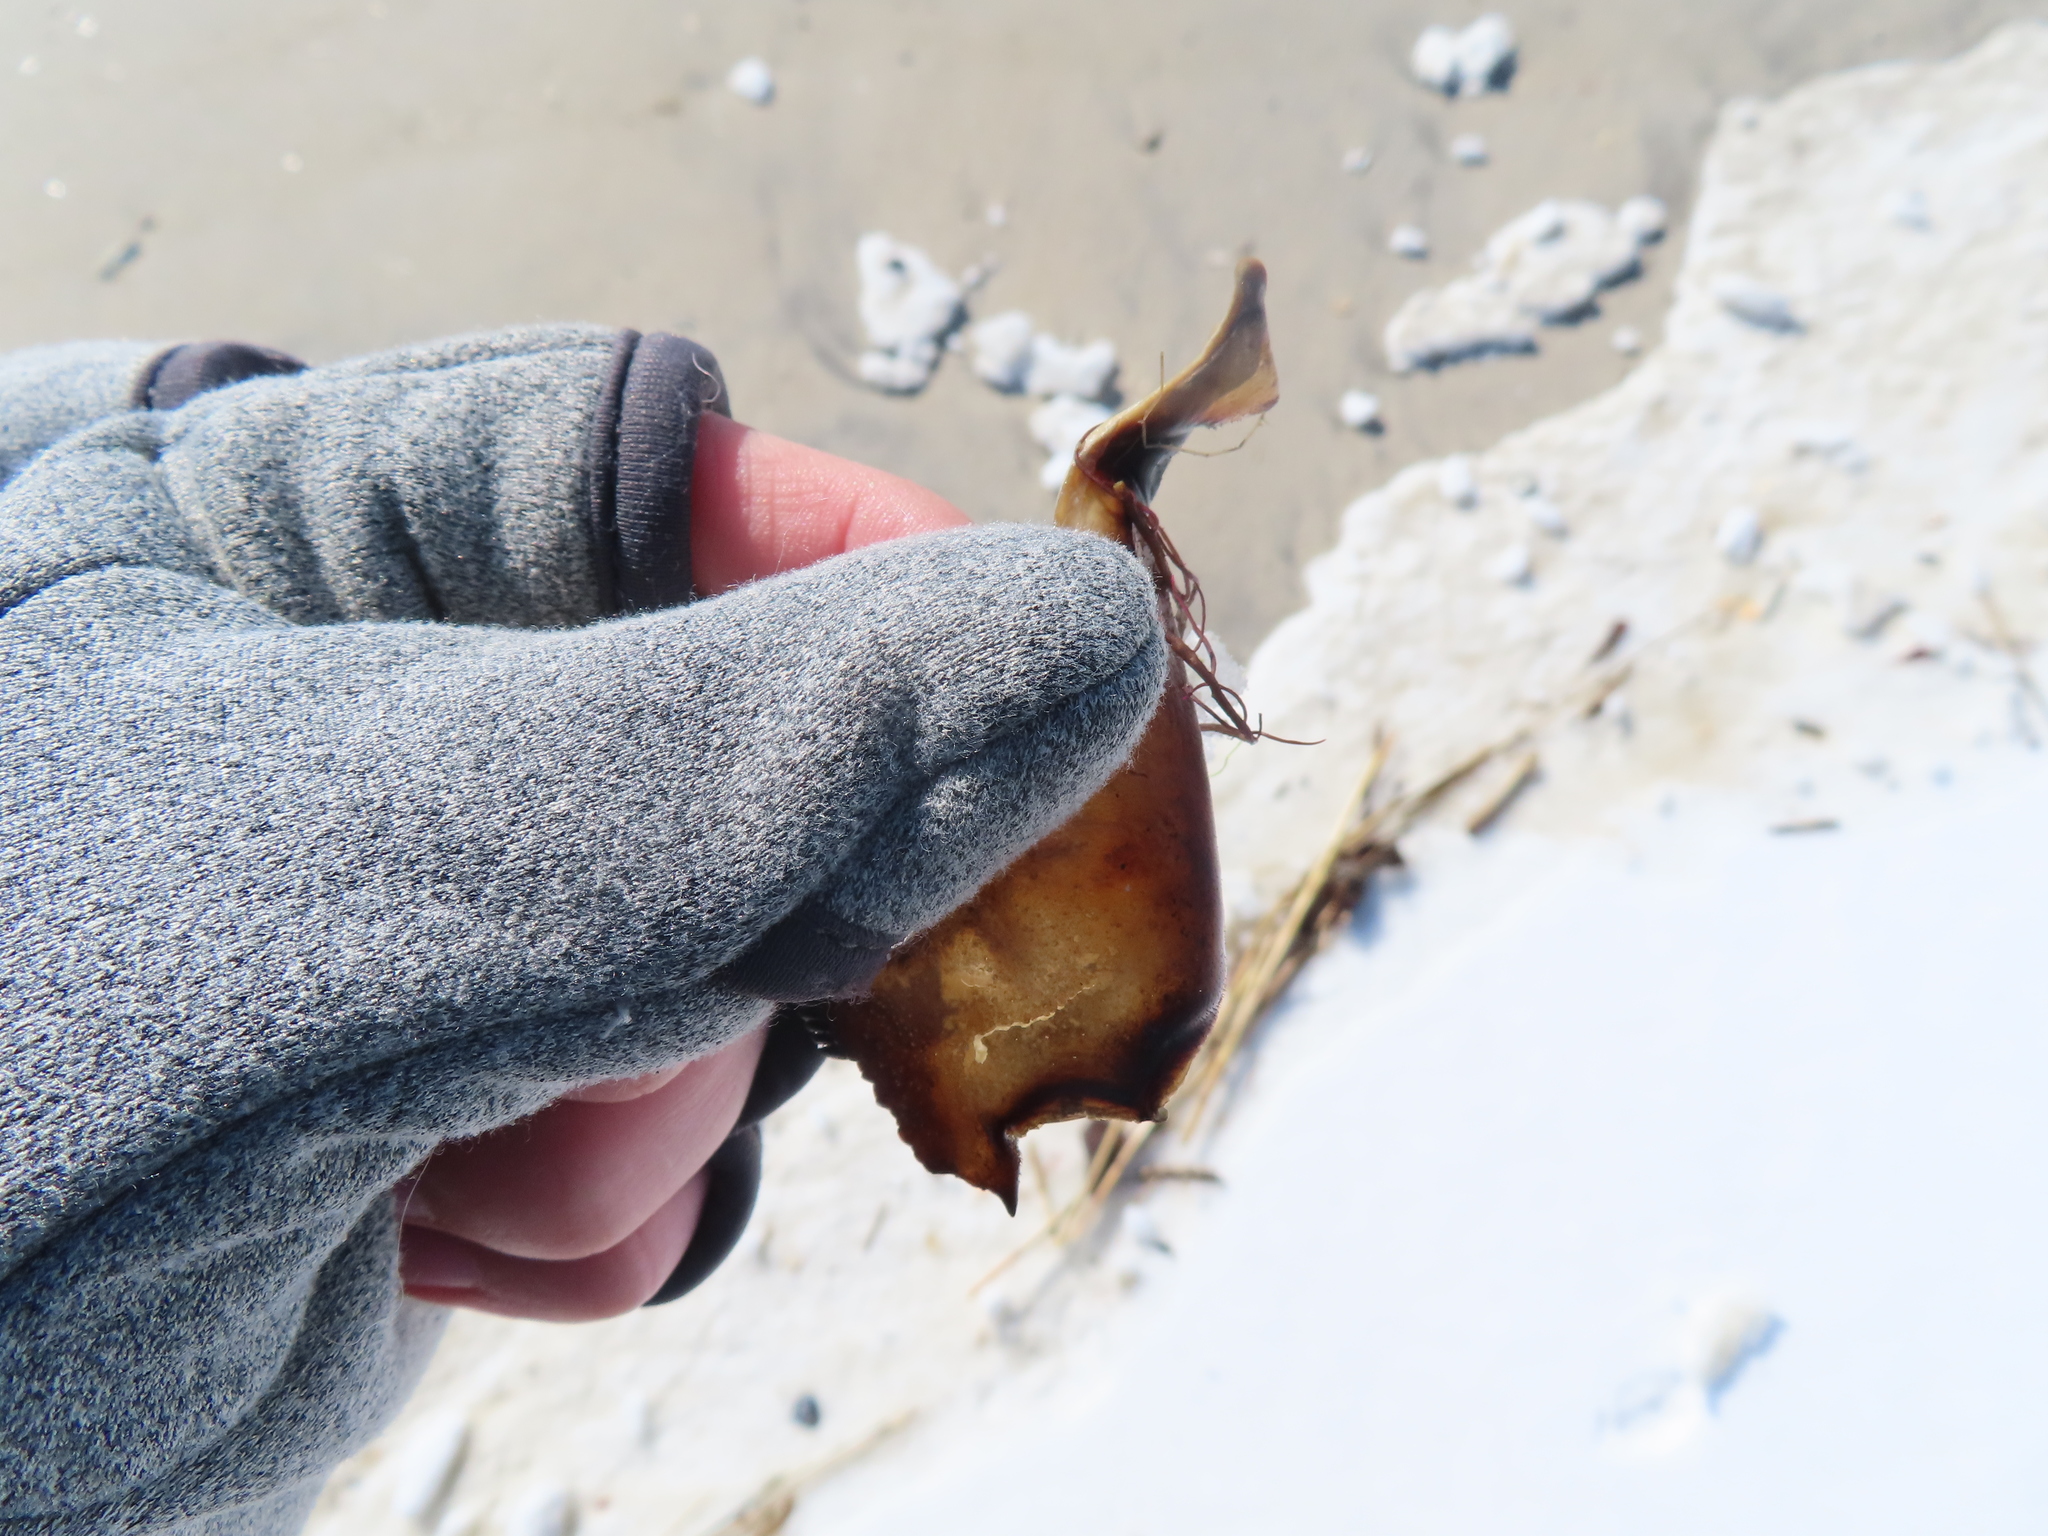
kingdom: Animalia
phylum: Arthropoda
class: Merostomata
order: Xiphosurida
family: Limulidae
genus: Limulus
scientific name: Limulus polyphemus
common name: Horseshoe crab
